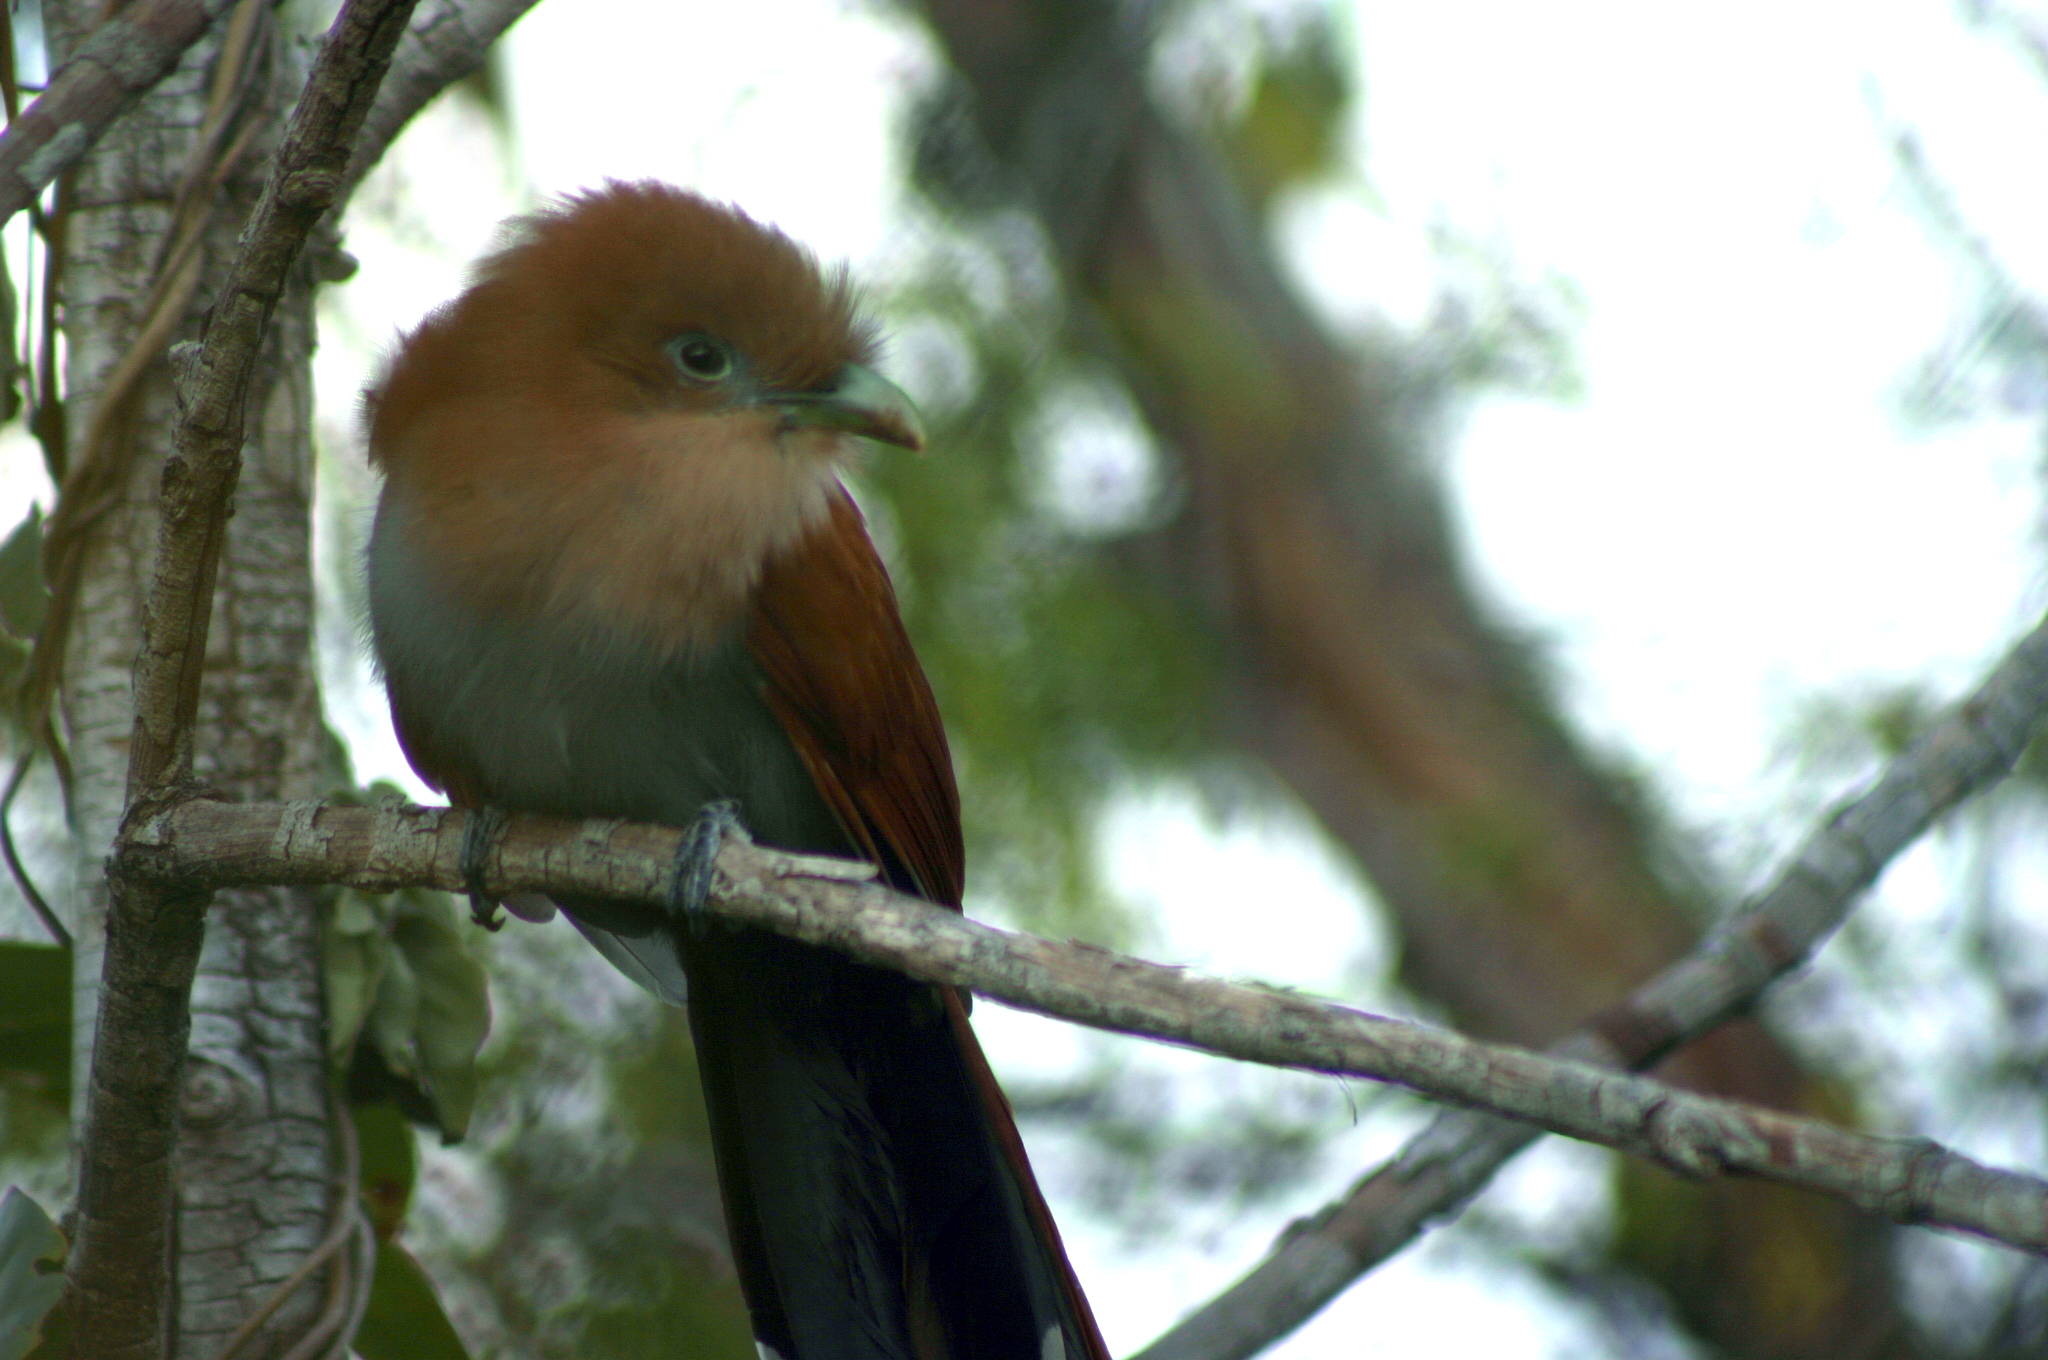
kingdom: Animalia
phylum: Chordata
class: Aves
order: Cuculiformes
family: Cuculidae
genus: Piaya
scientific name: Piaya cayana
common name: Squirrel cuckoo
